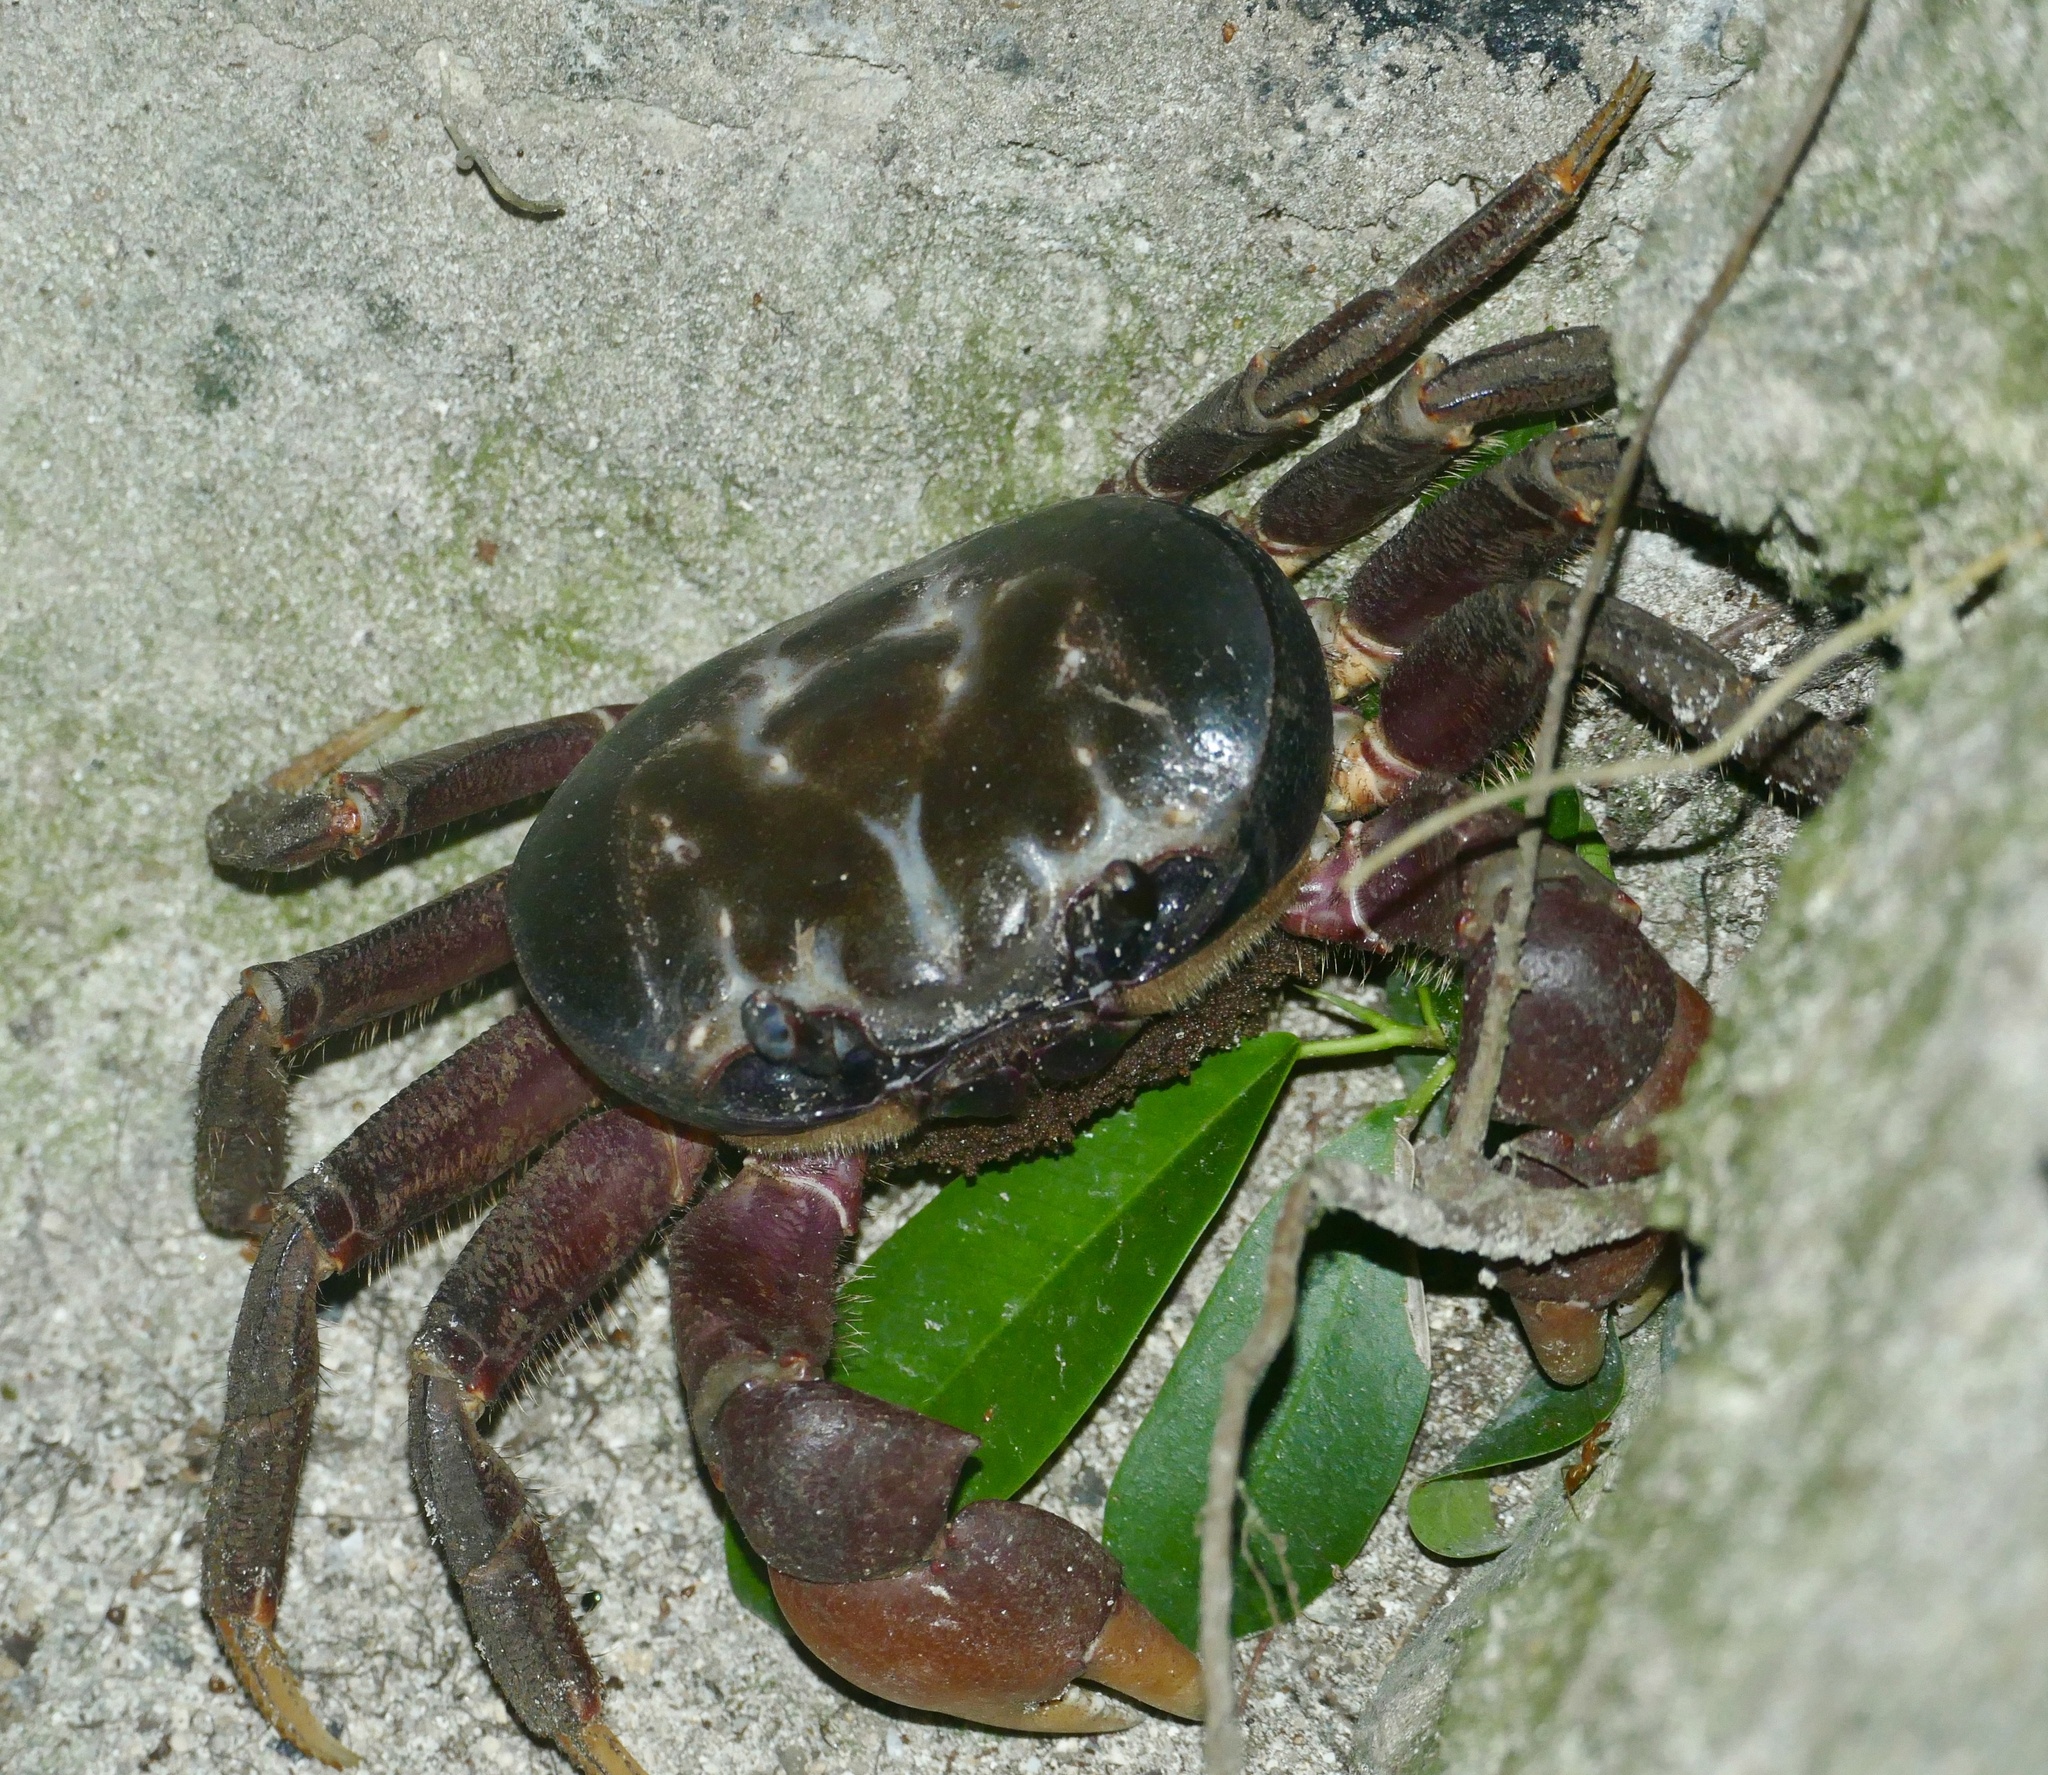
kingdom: Animalia
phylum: Arthropoda
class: Malacostraca
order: Decapoda
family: Gecarcinidae
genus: Tuerkayana
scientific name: Tuerkayana hirtipes
